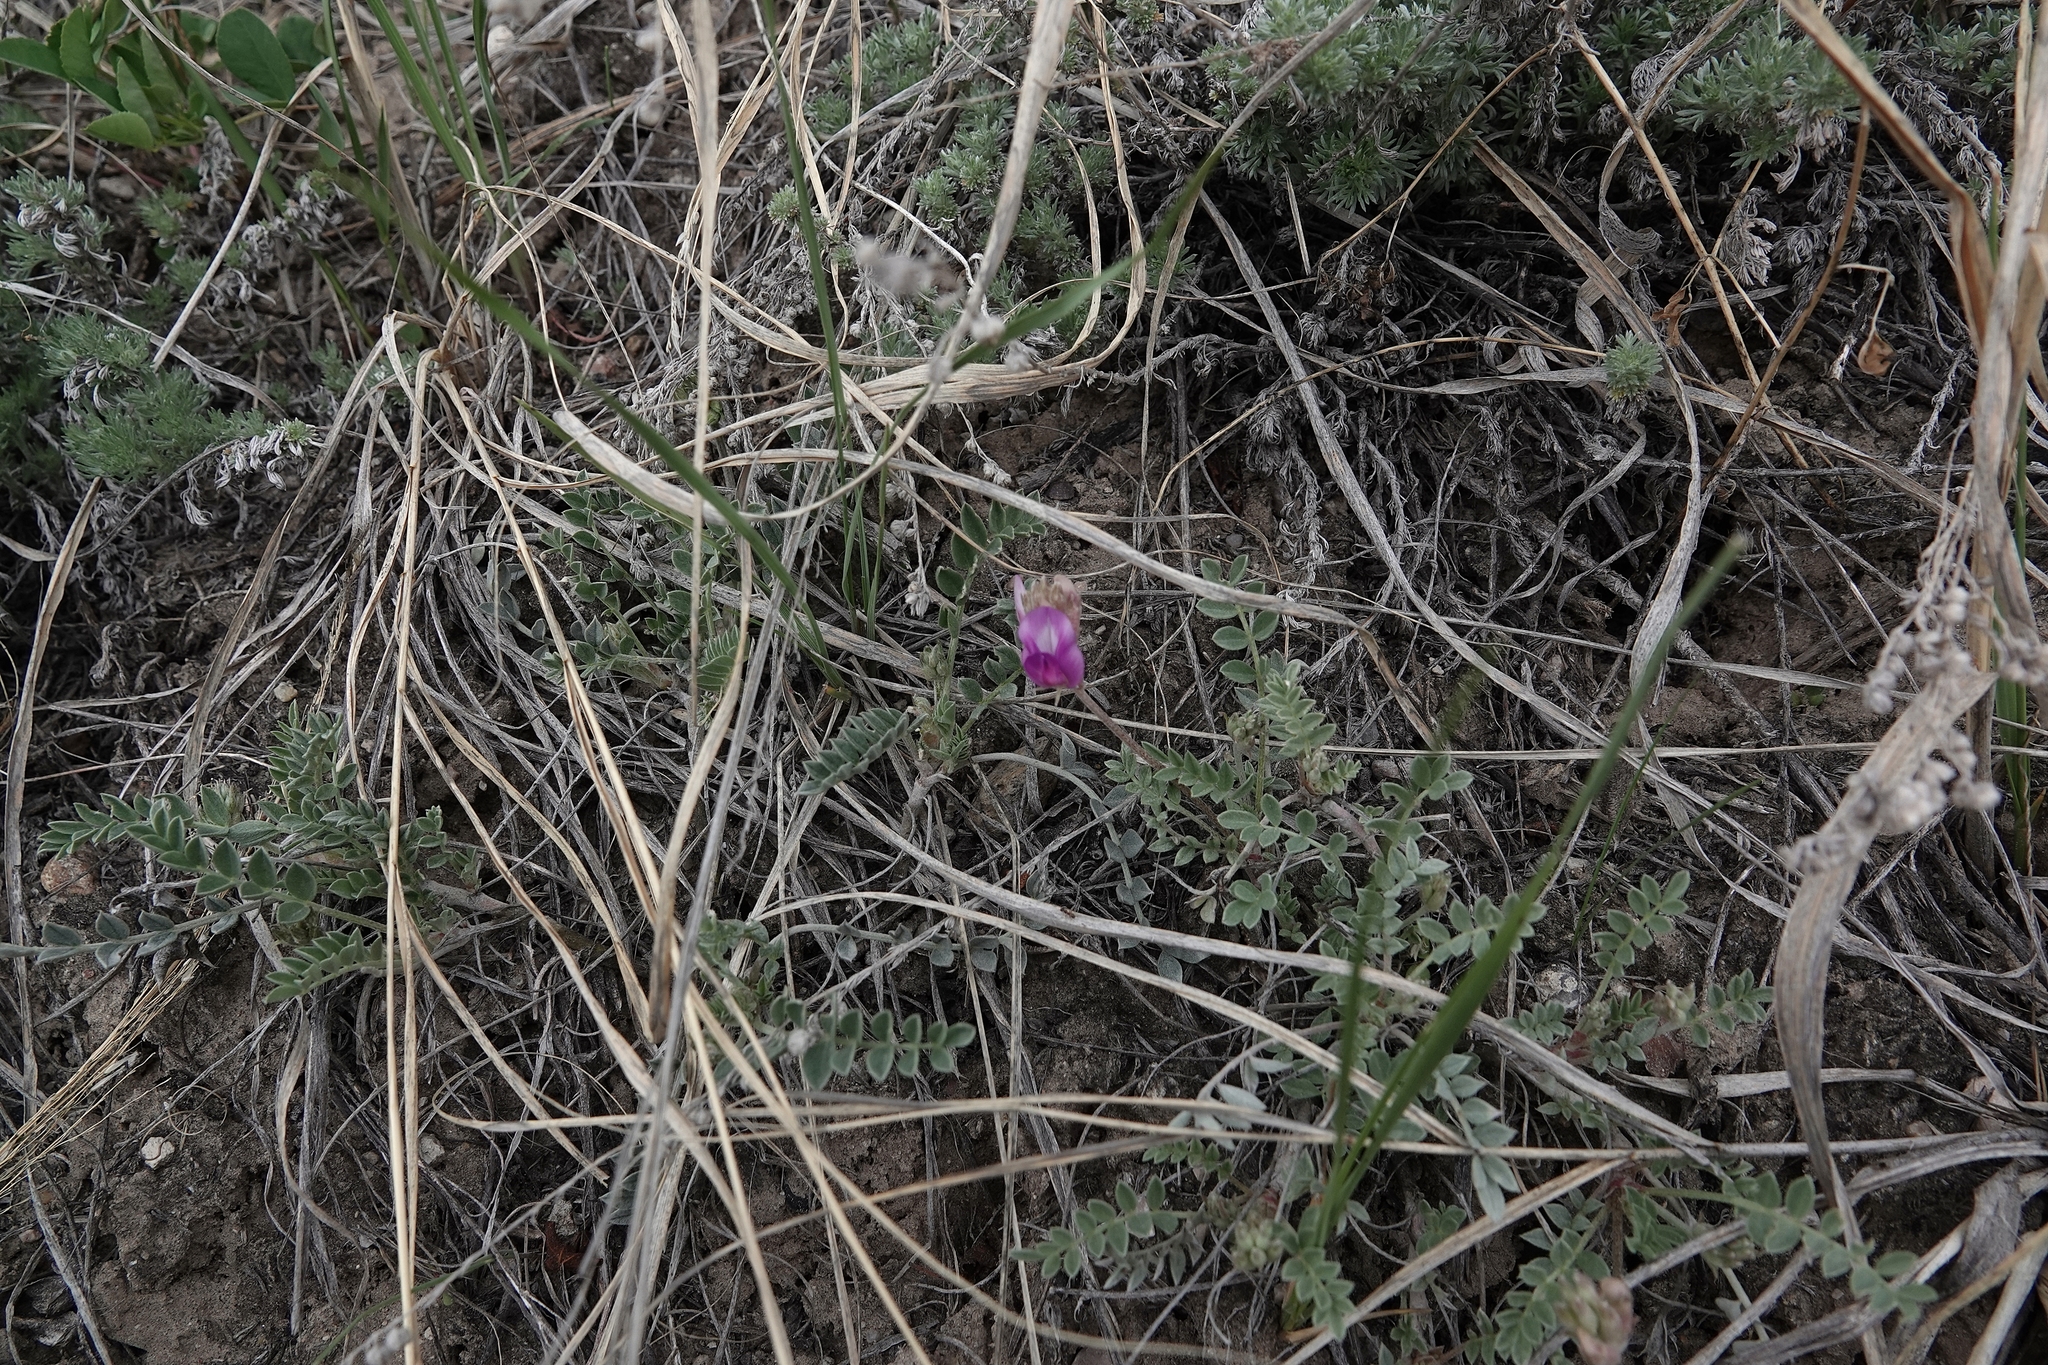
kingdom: Plantae
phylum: Tracheophyta
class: Magnoliopsida
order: Fabales
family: Fabaceae
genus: Astragalus
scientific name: Astragalus missouriensis
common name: Missouri milk-vetch
